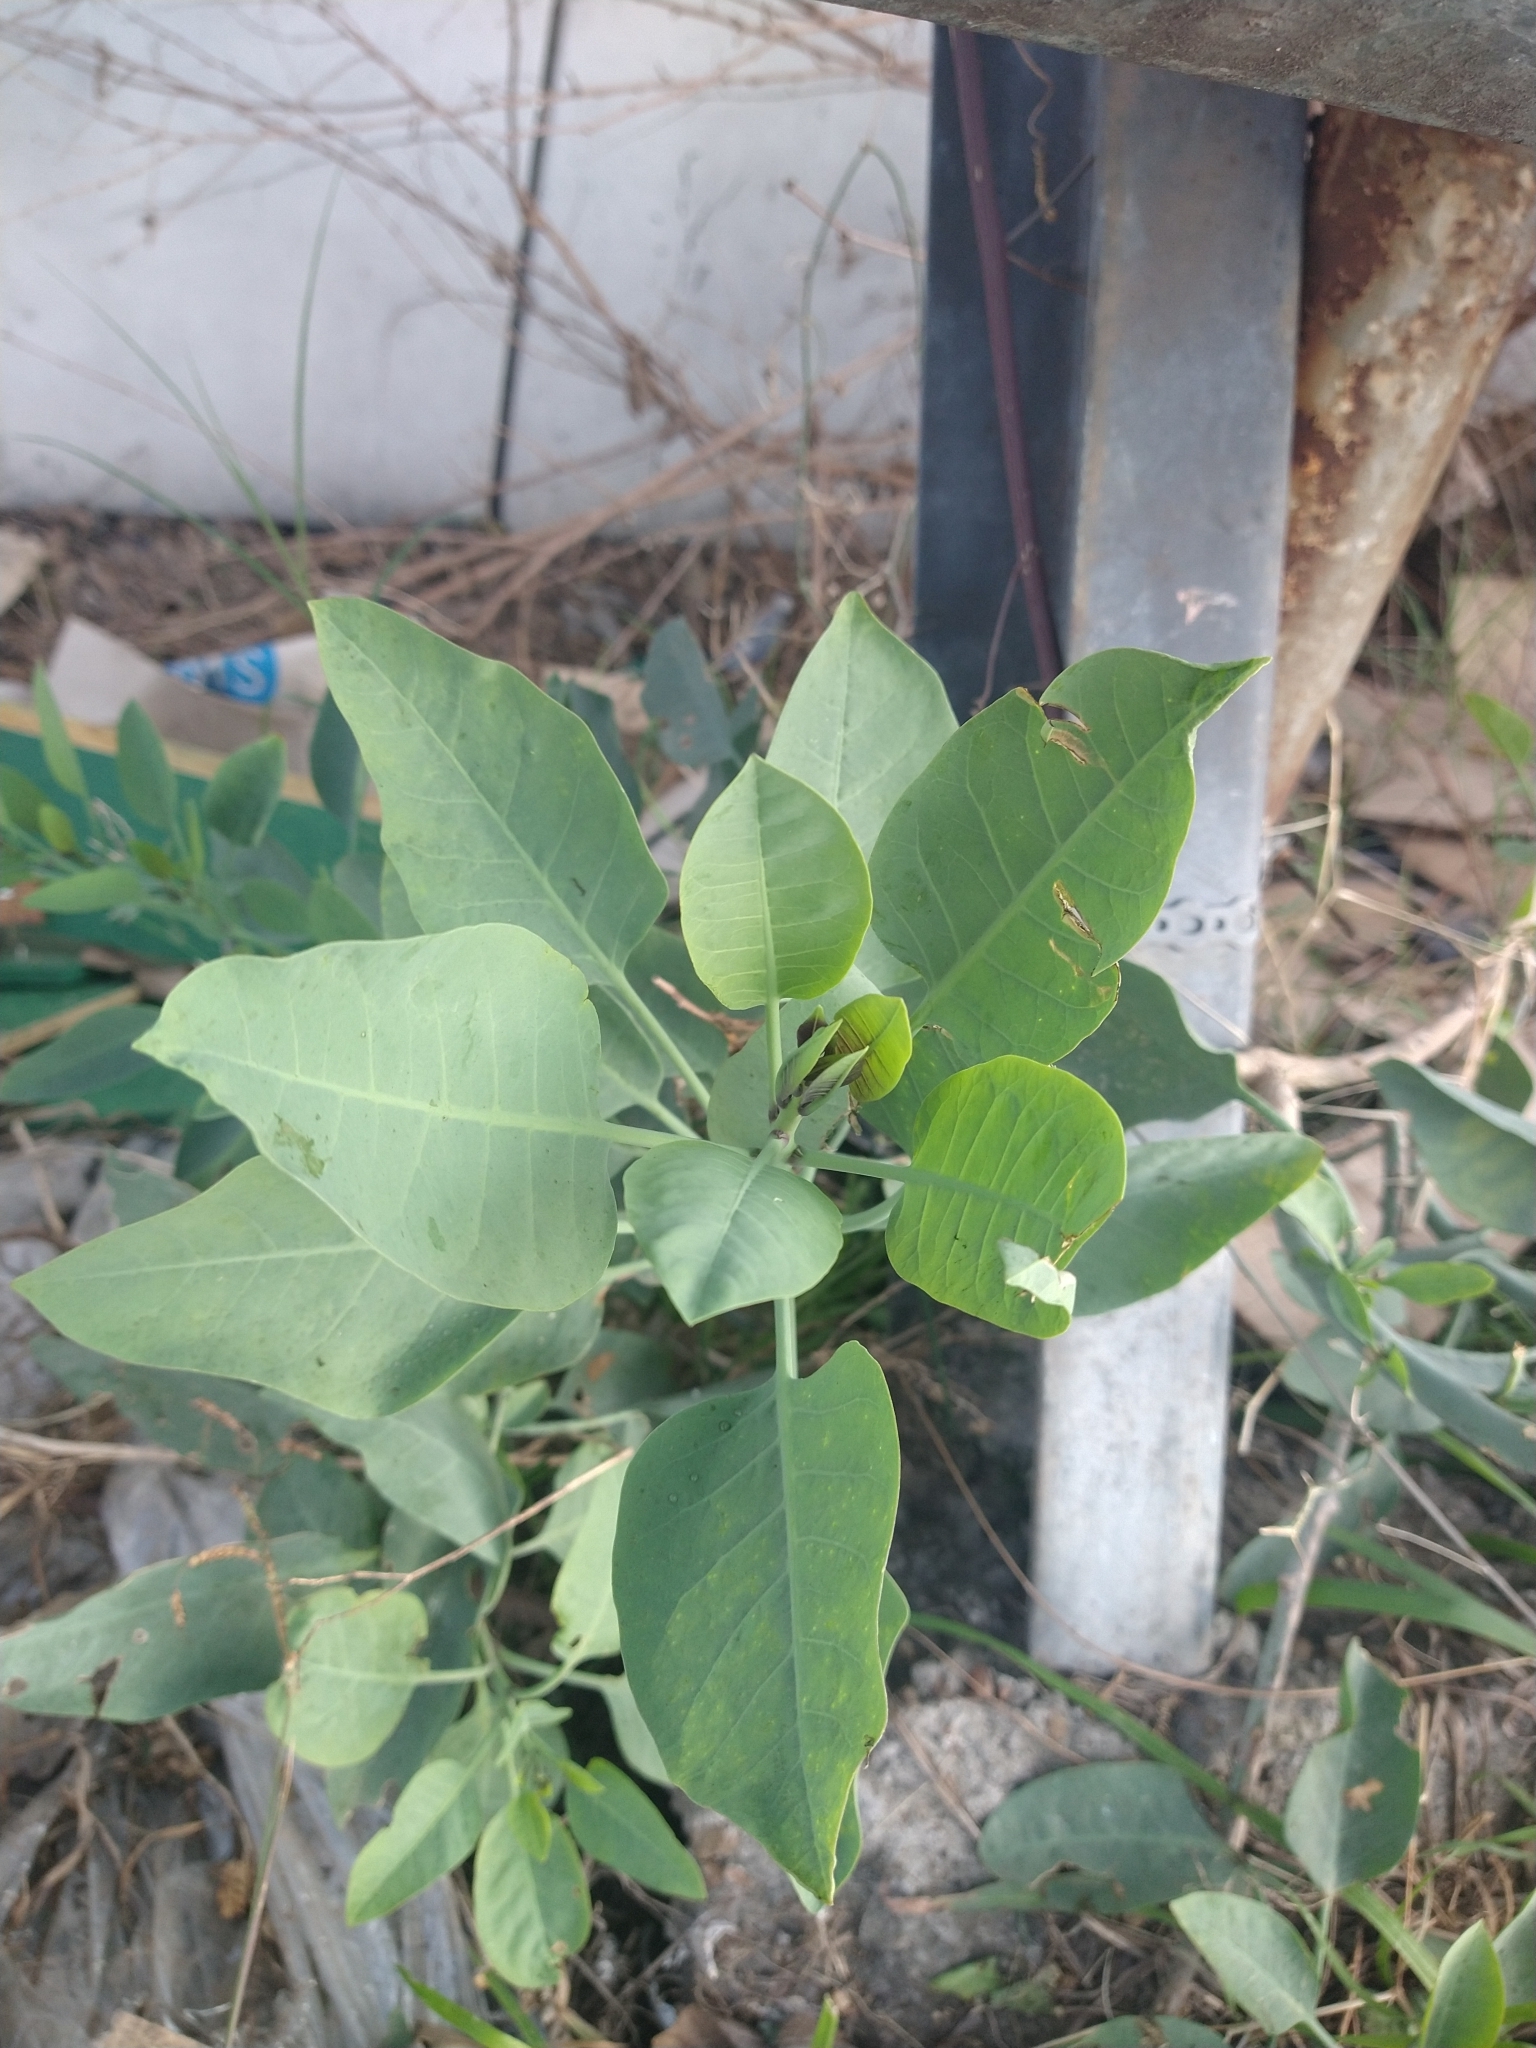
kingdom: Plantae
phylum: Tracheophyta
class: Magnoliopsida
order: Solanales
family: Solanaceae
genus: Nicotiana
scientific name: Nicotiana glauca
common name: Tree tobacco
